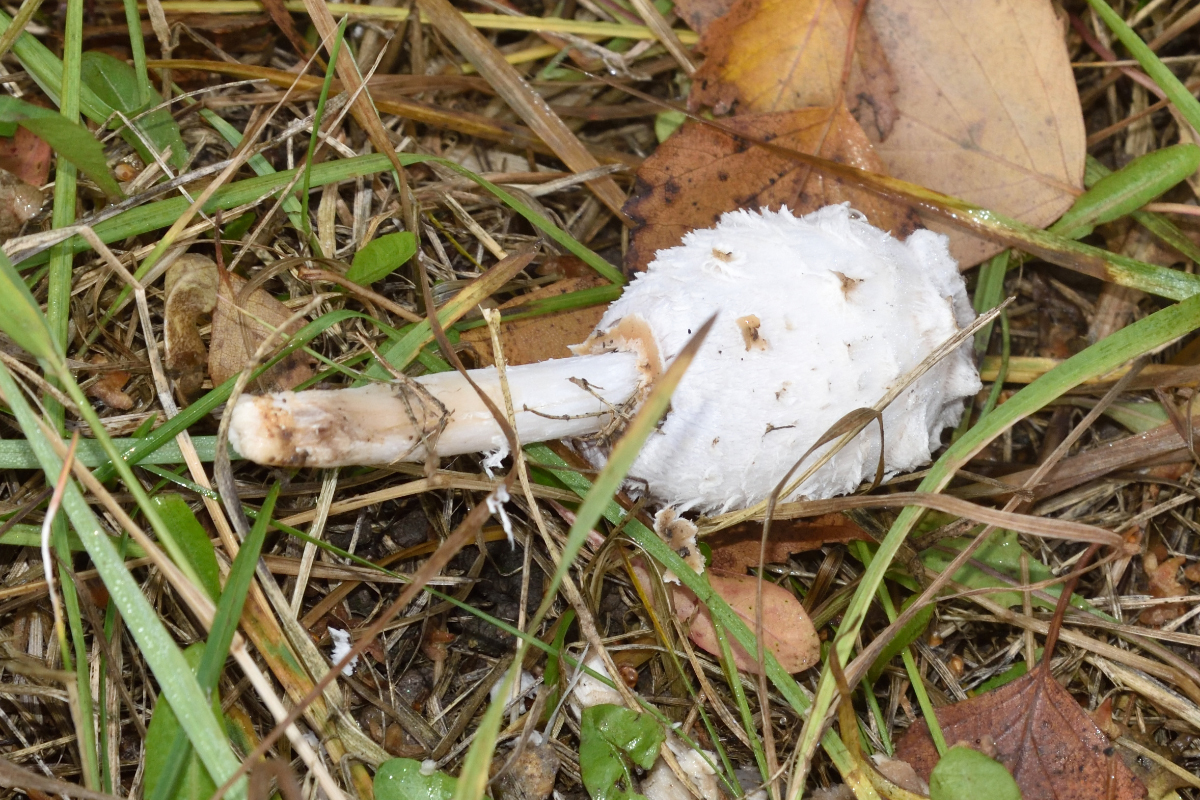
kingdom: Fungi
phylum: Basidiomycota
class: Agaricomycetes
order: Agaricales
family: Agaricaceae
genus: Coprinus
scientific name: Coprinus comatus
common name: Lawyer's wig
